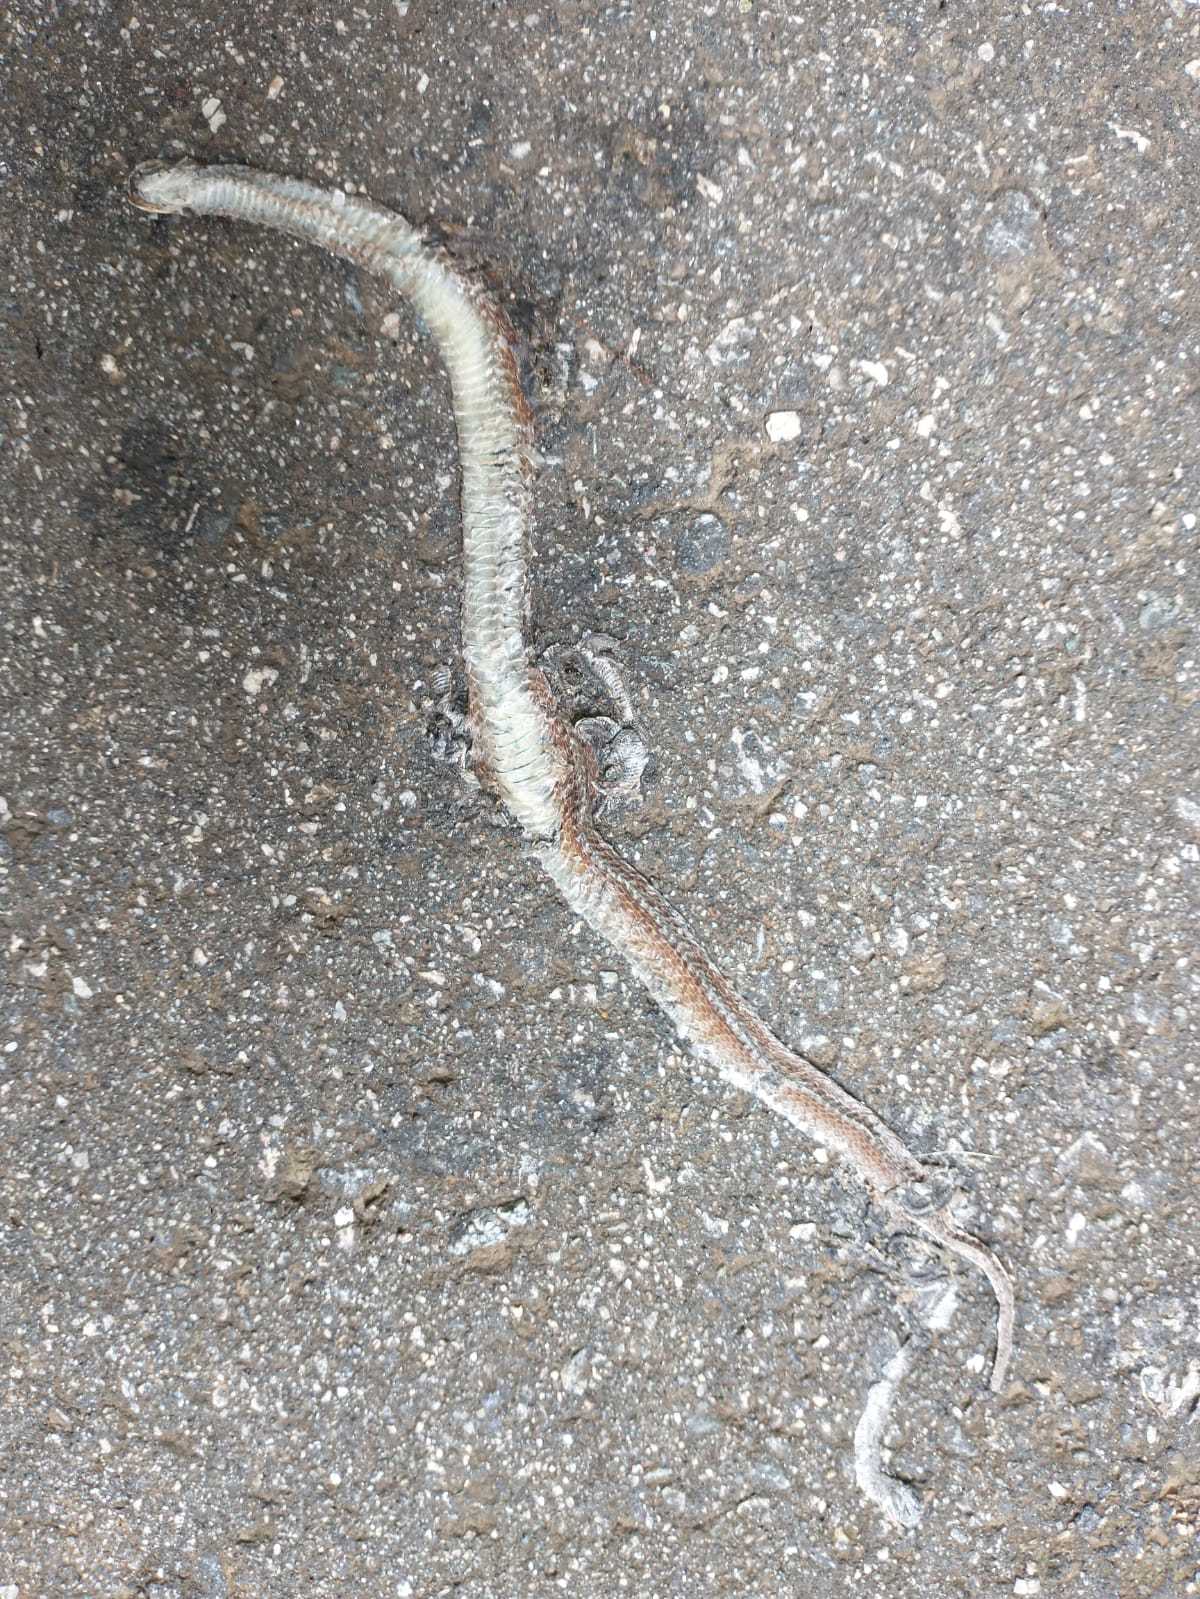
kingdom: Animalia
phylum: Chordata
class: Squamata
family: Colubridae
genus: Storeria
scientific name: Storeria dekayi
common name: (dekay’s) brown snake
